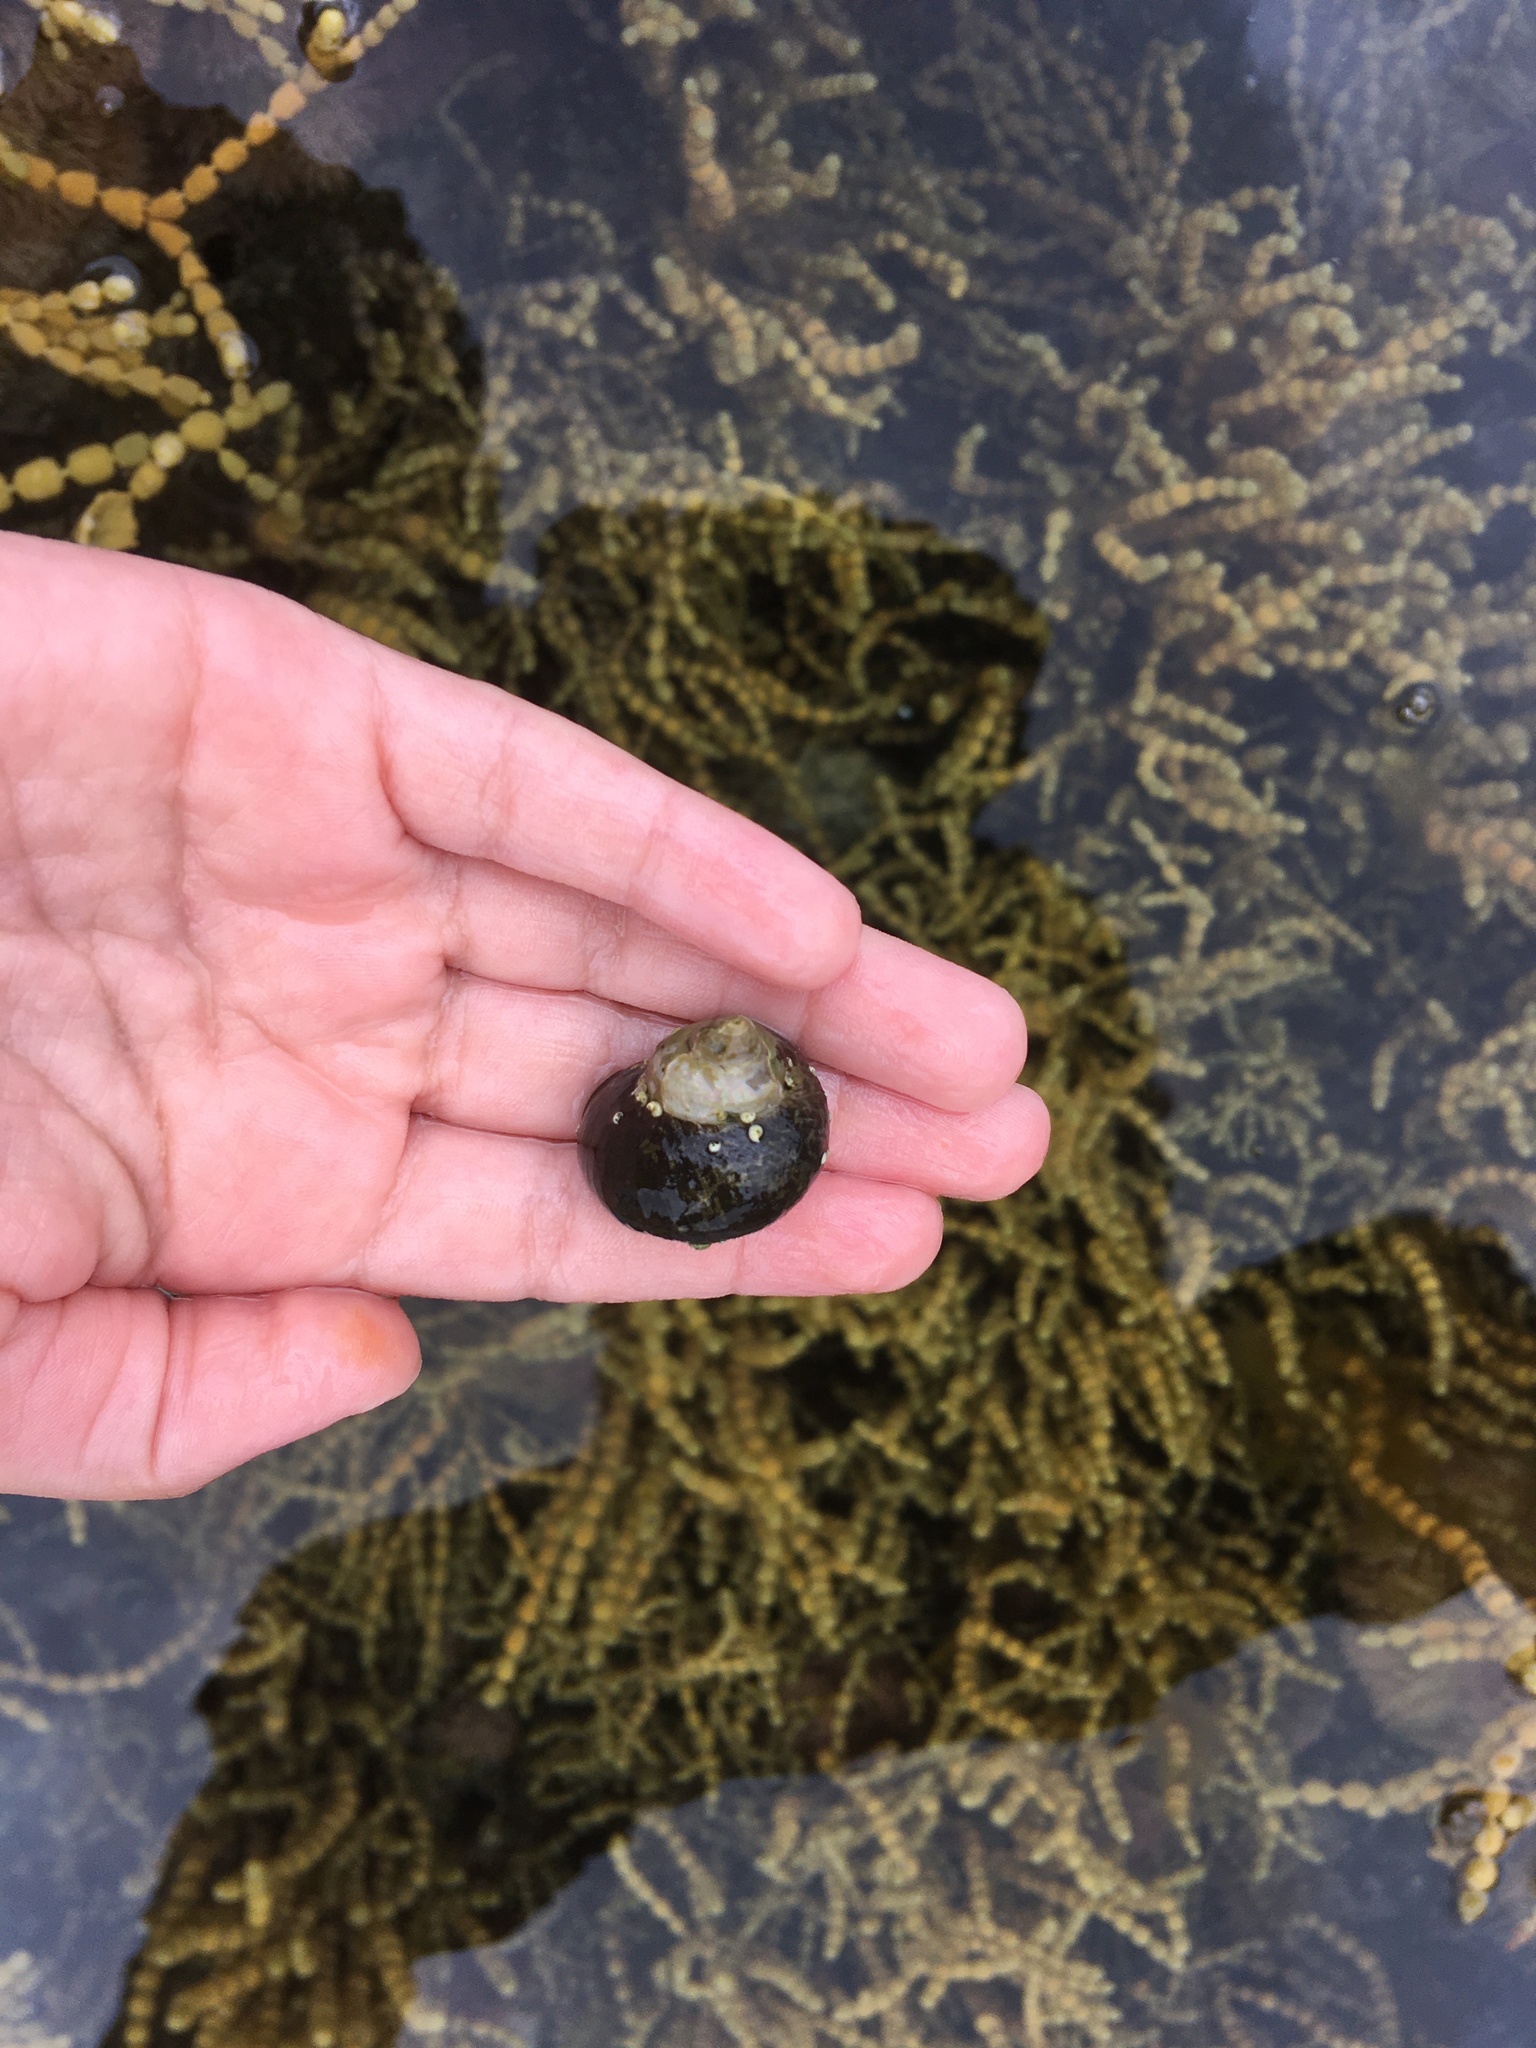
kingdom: Animalia
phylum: Mollusca
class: Gastropoda
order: Trochida
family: Turbinidae
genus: Lunella
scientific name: Lunella smaragda
